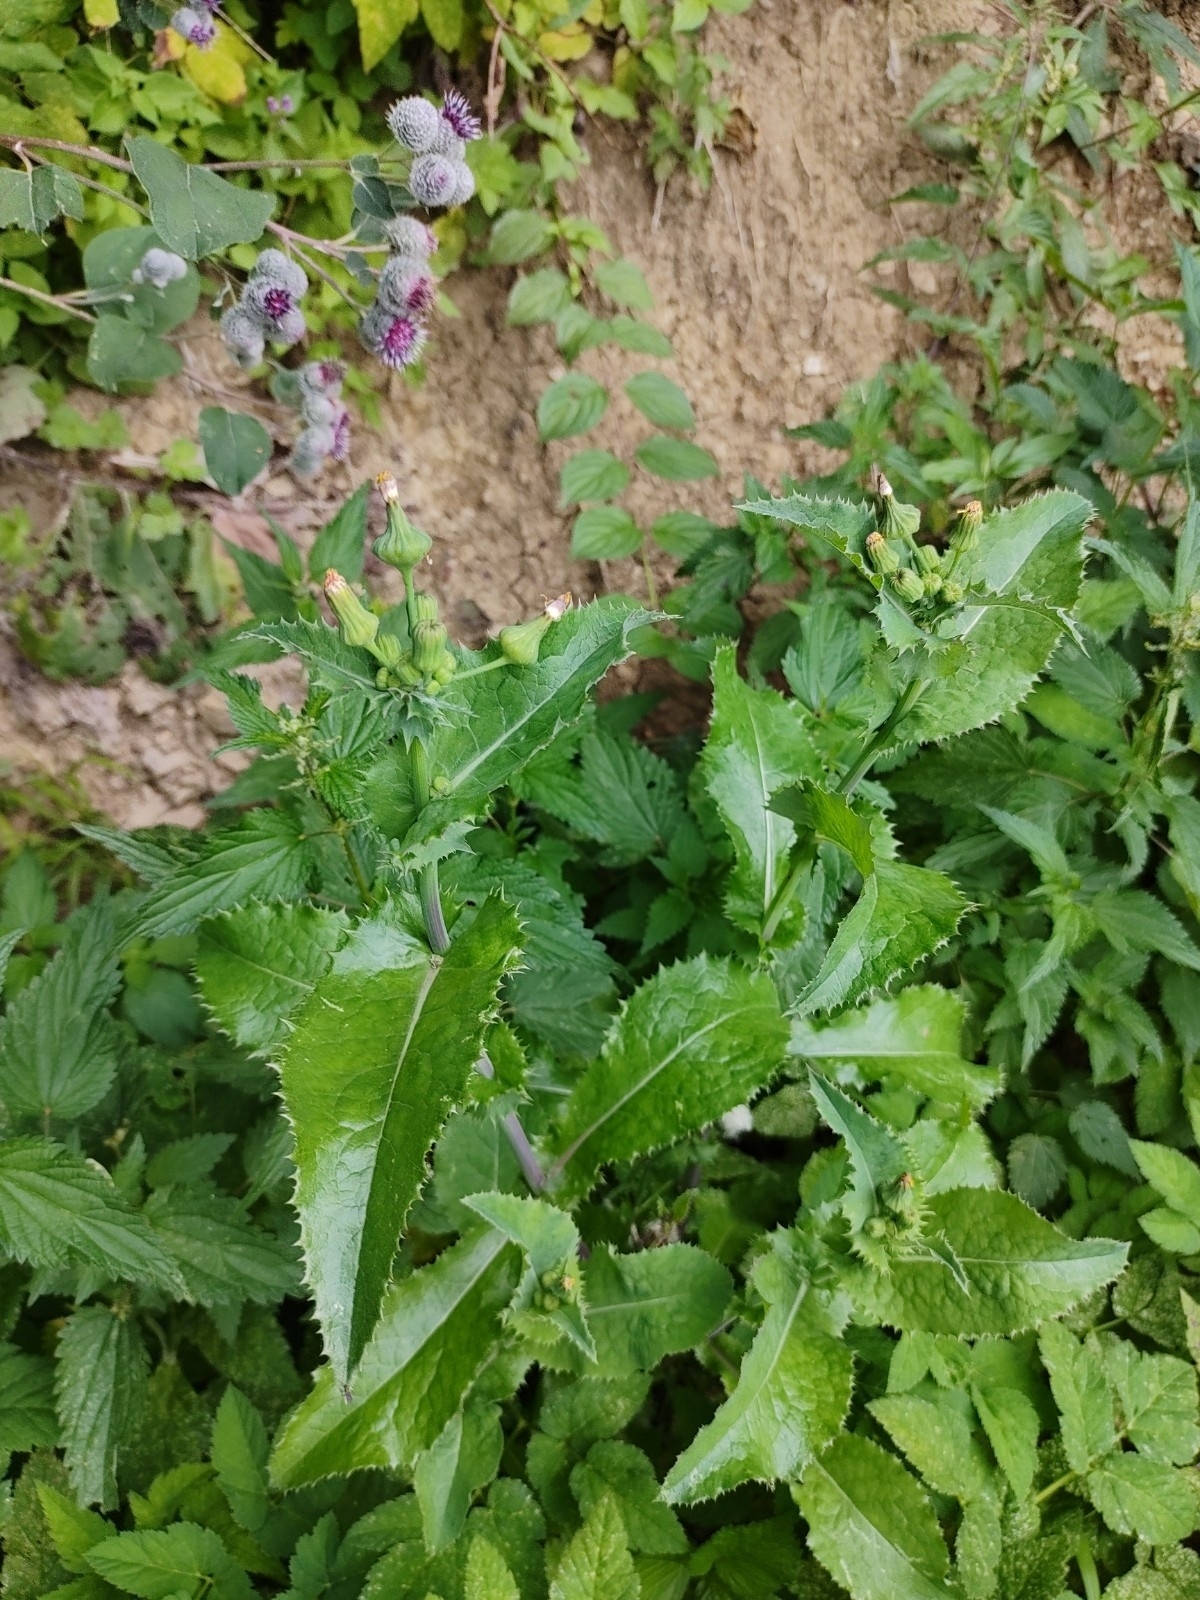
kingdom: Plantae
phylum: Tracheophyta
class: Magnoliopsida
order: Asterales
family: Asteraceae
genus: Sonchus
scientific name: Sonchus asper
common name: Prickly sow-thistle
